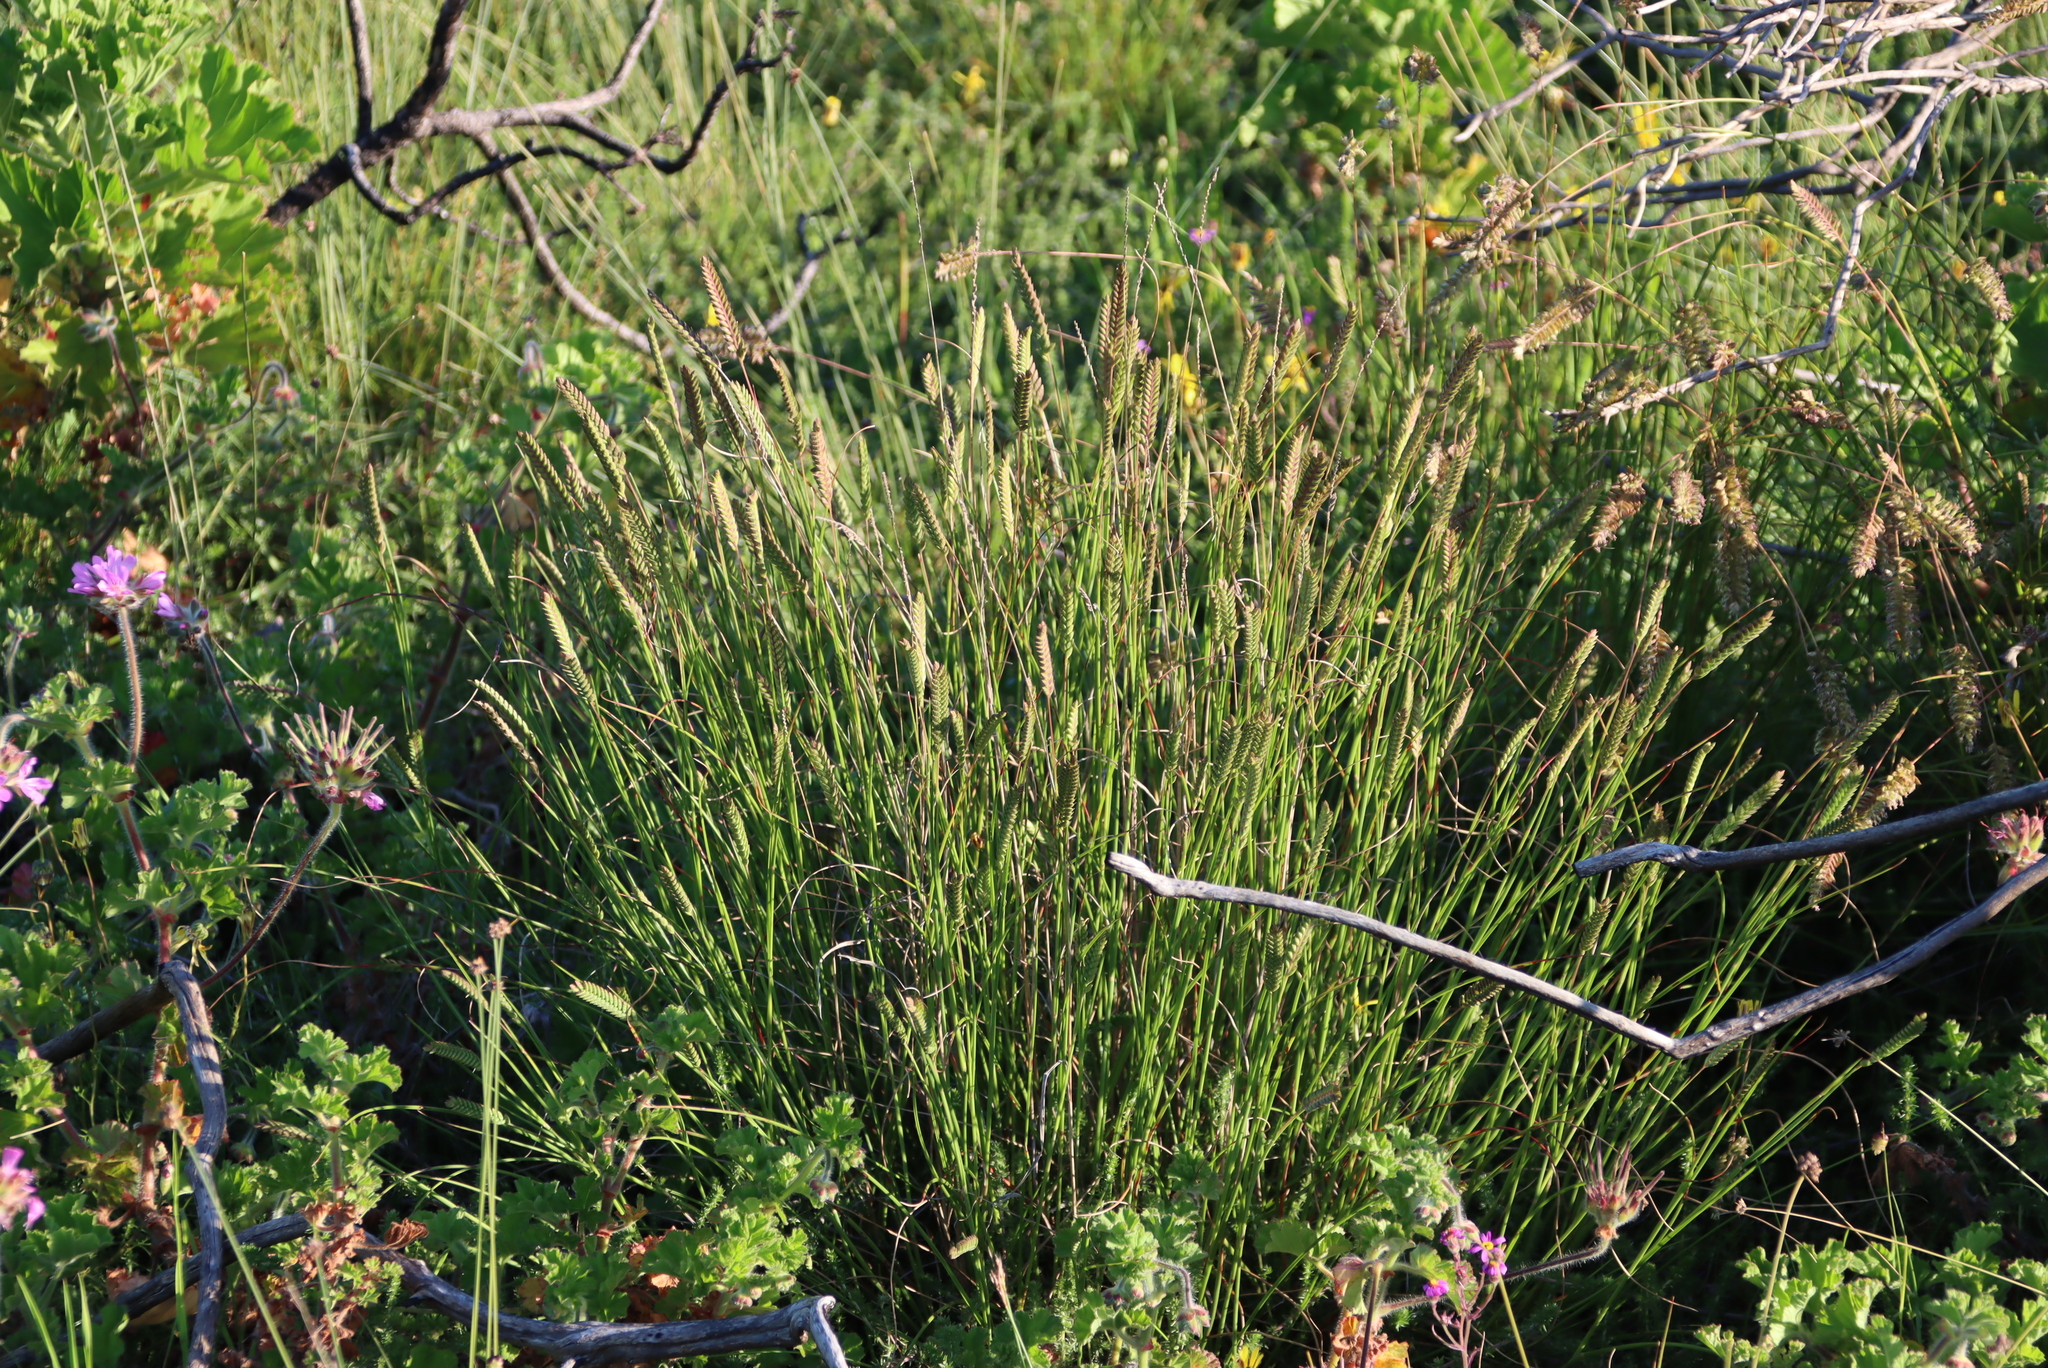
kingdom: Plantae
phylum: Tracheophyta
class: Liliopsida
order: Poales
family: Poaceae
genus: Tribolium
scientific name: Tribolium uniolae
